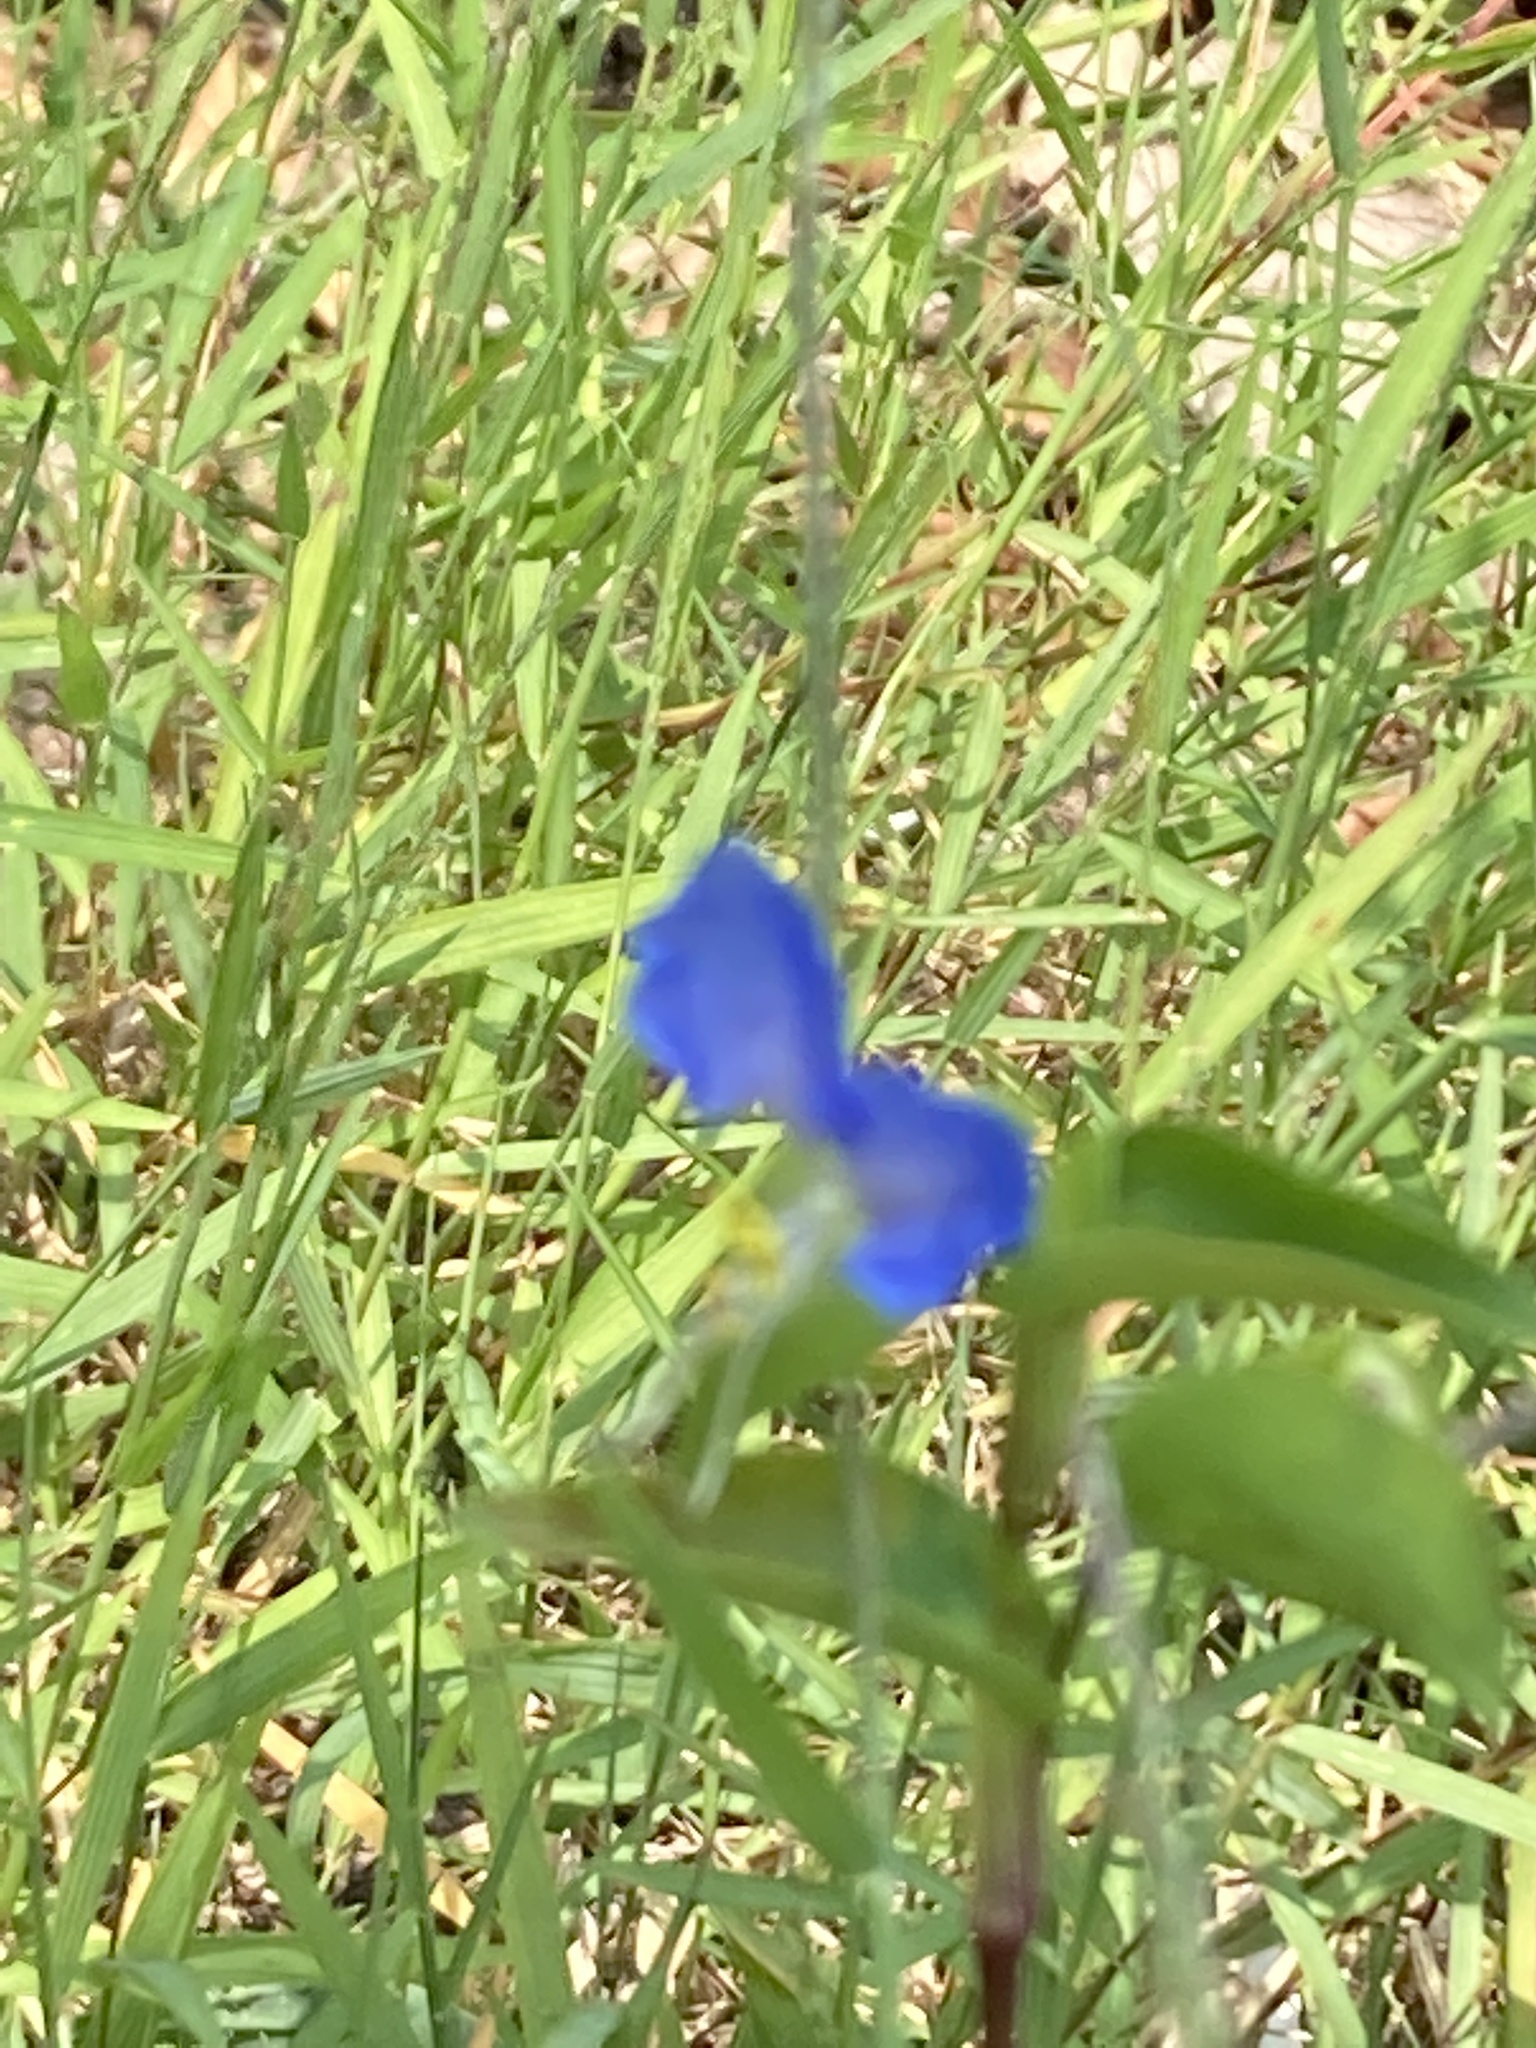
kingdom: Plantae
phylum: Tracheophyta
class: Liliopsida
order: Commelinales
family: Commelinaceae
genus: Commelina
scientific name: Commelina communis
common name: Asiatic dayflower
